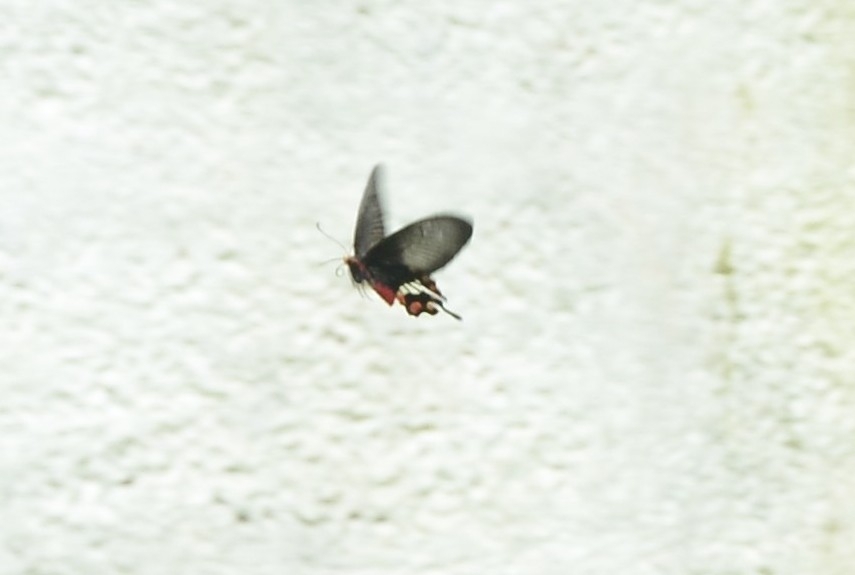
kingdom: Animalia
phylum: Arthropoda
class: Insecta
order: Lepidoptera
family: Papilionidae
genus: Pachliopta
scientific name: Pachliopta aristolochiae
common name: Common rose
